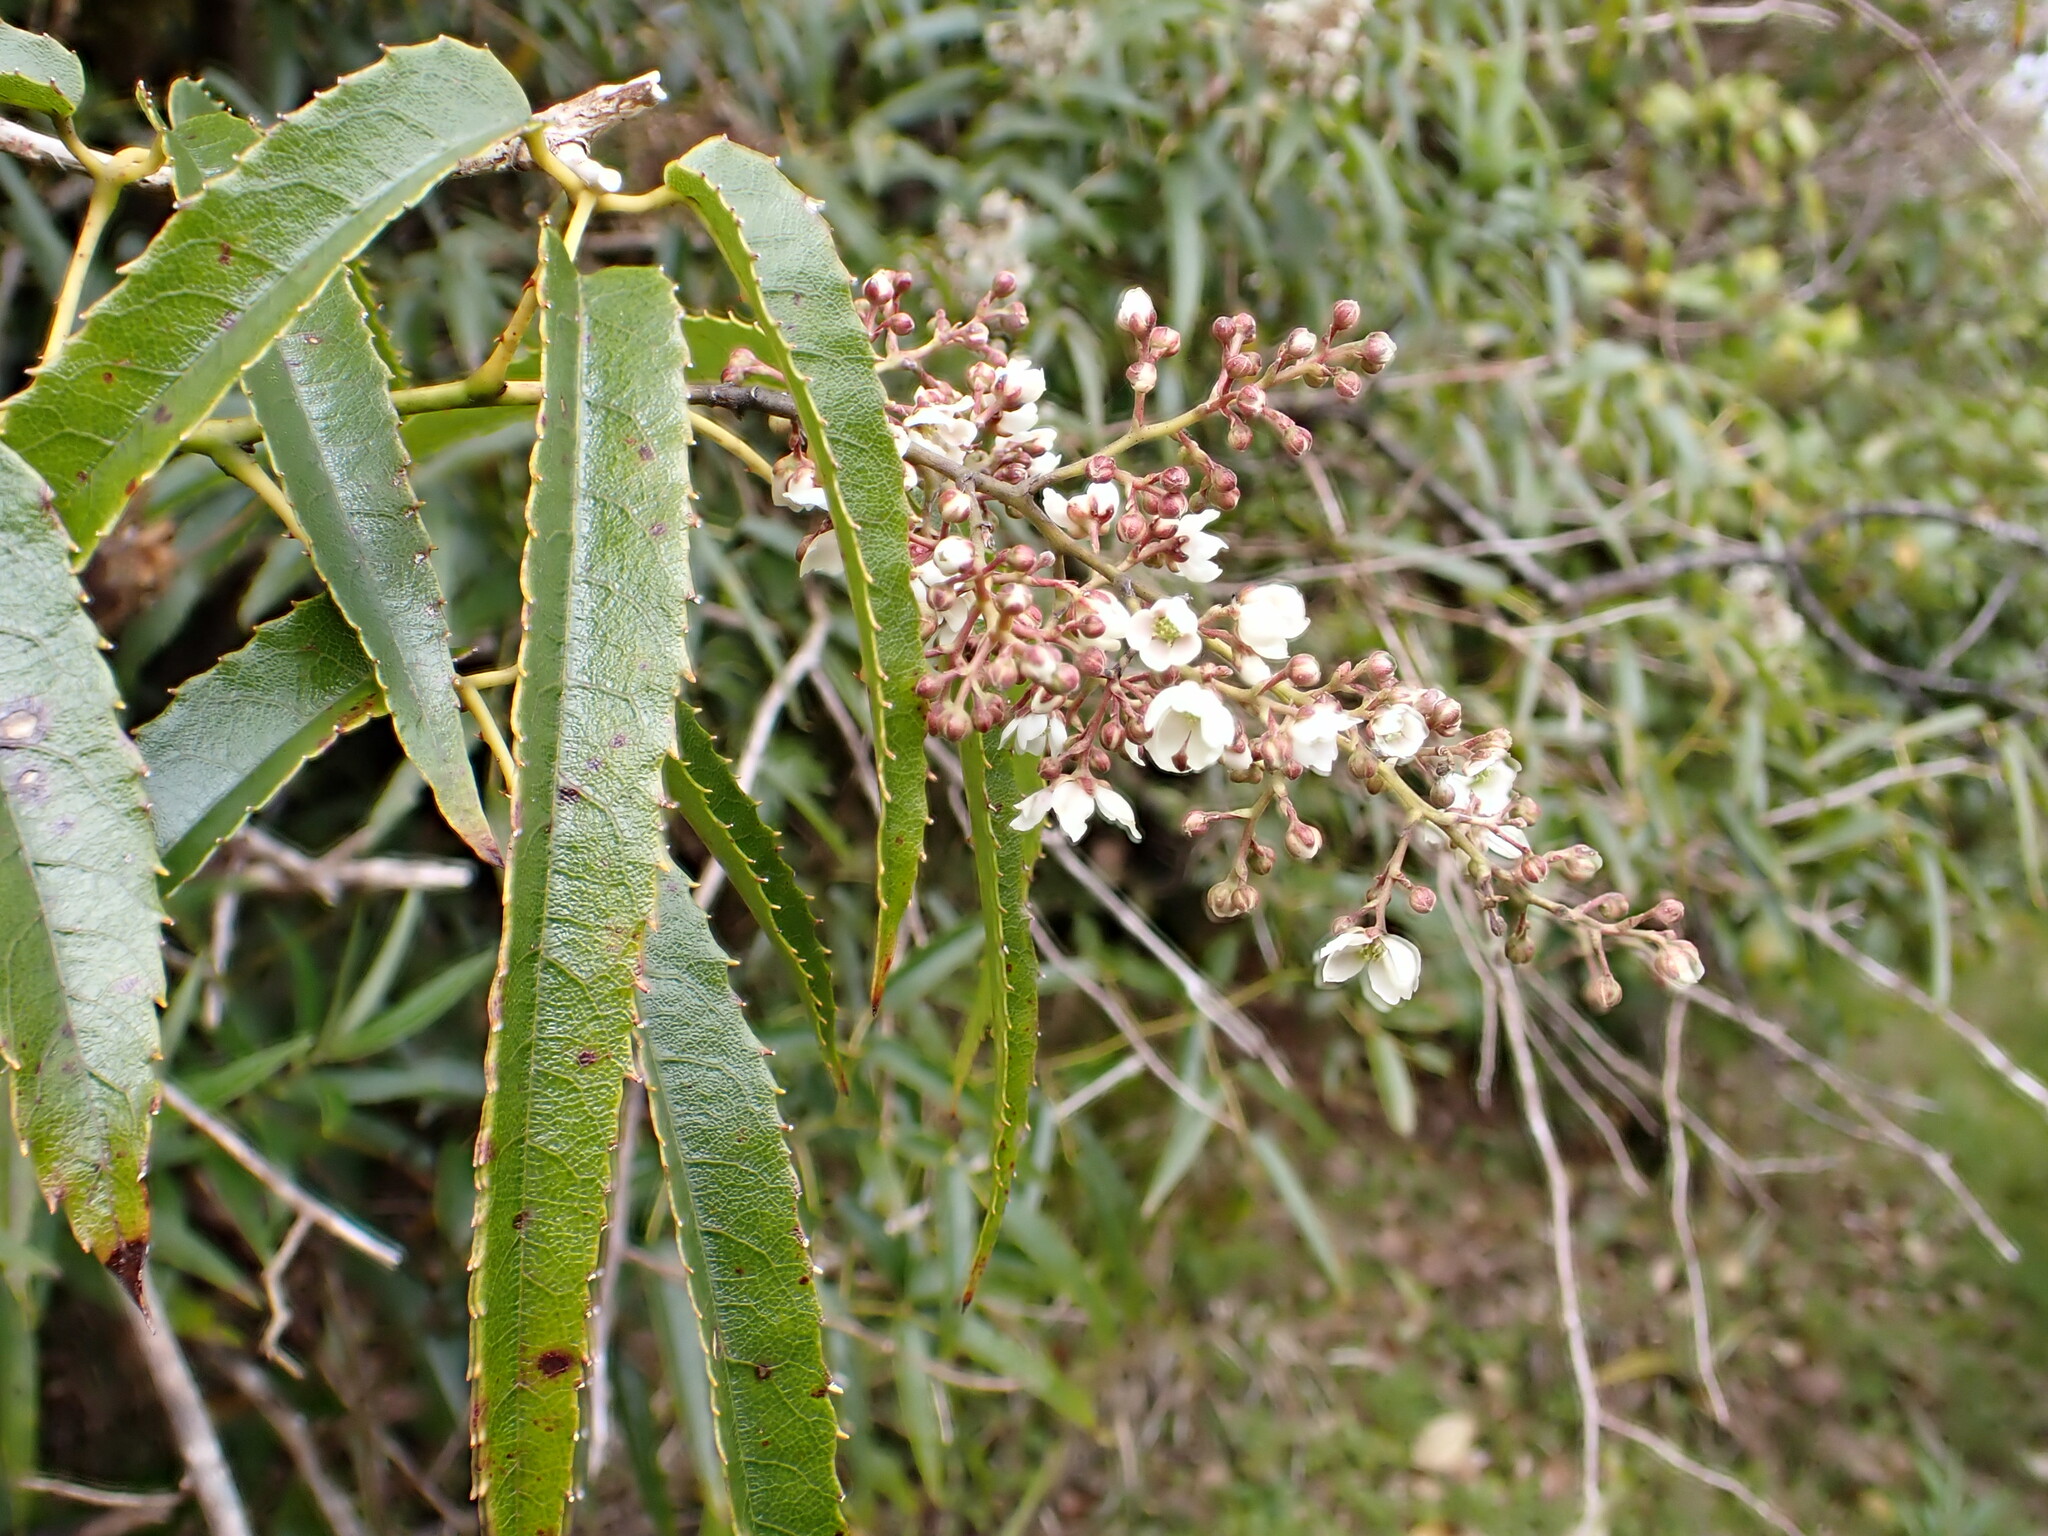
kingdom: Plantae
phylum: Tracheophyta
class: Magnoliopsida
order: Rosales
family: Rosaceae
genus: Rubus
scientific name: Rubus cissoides
